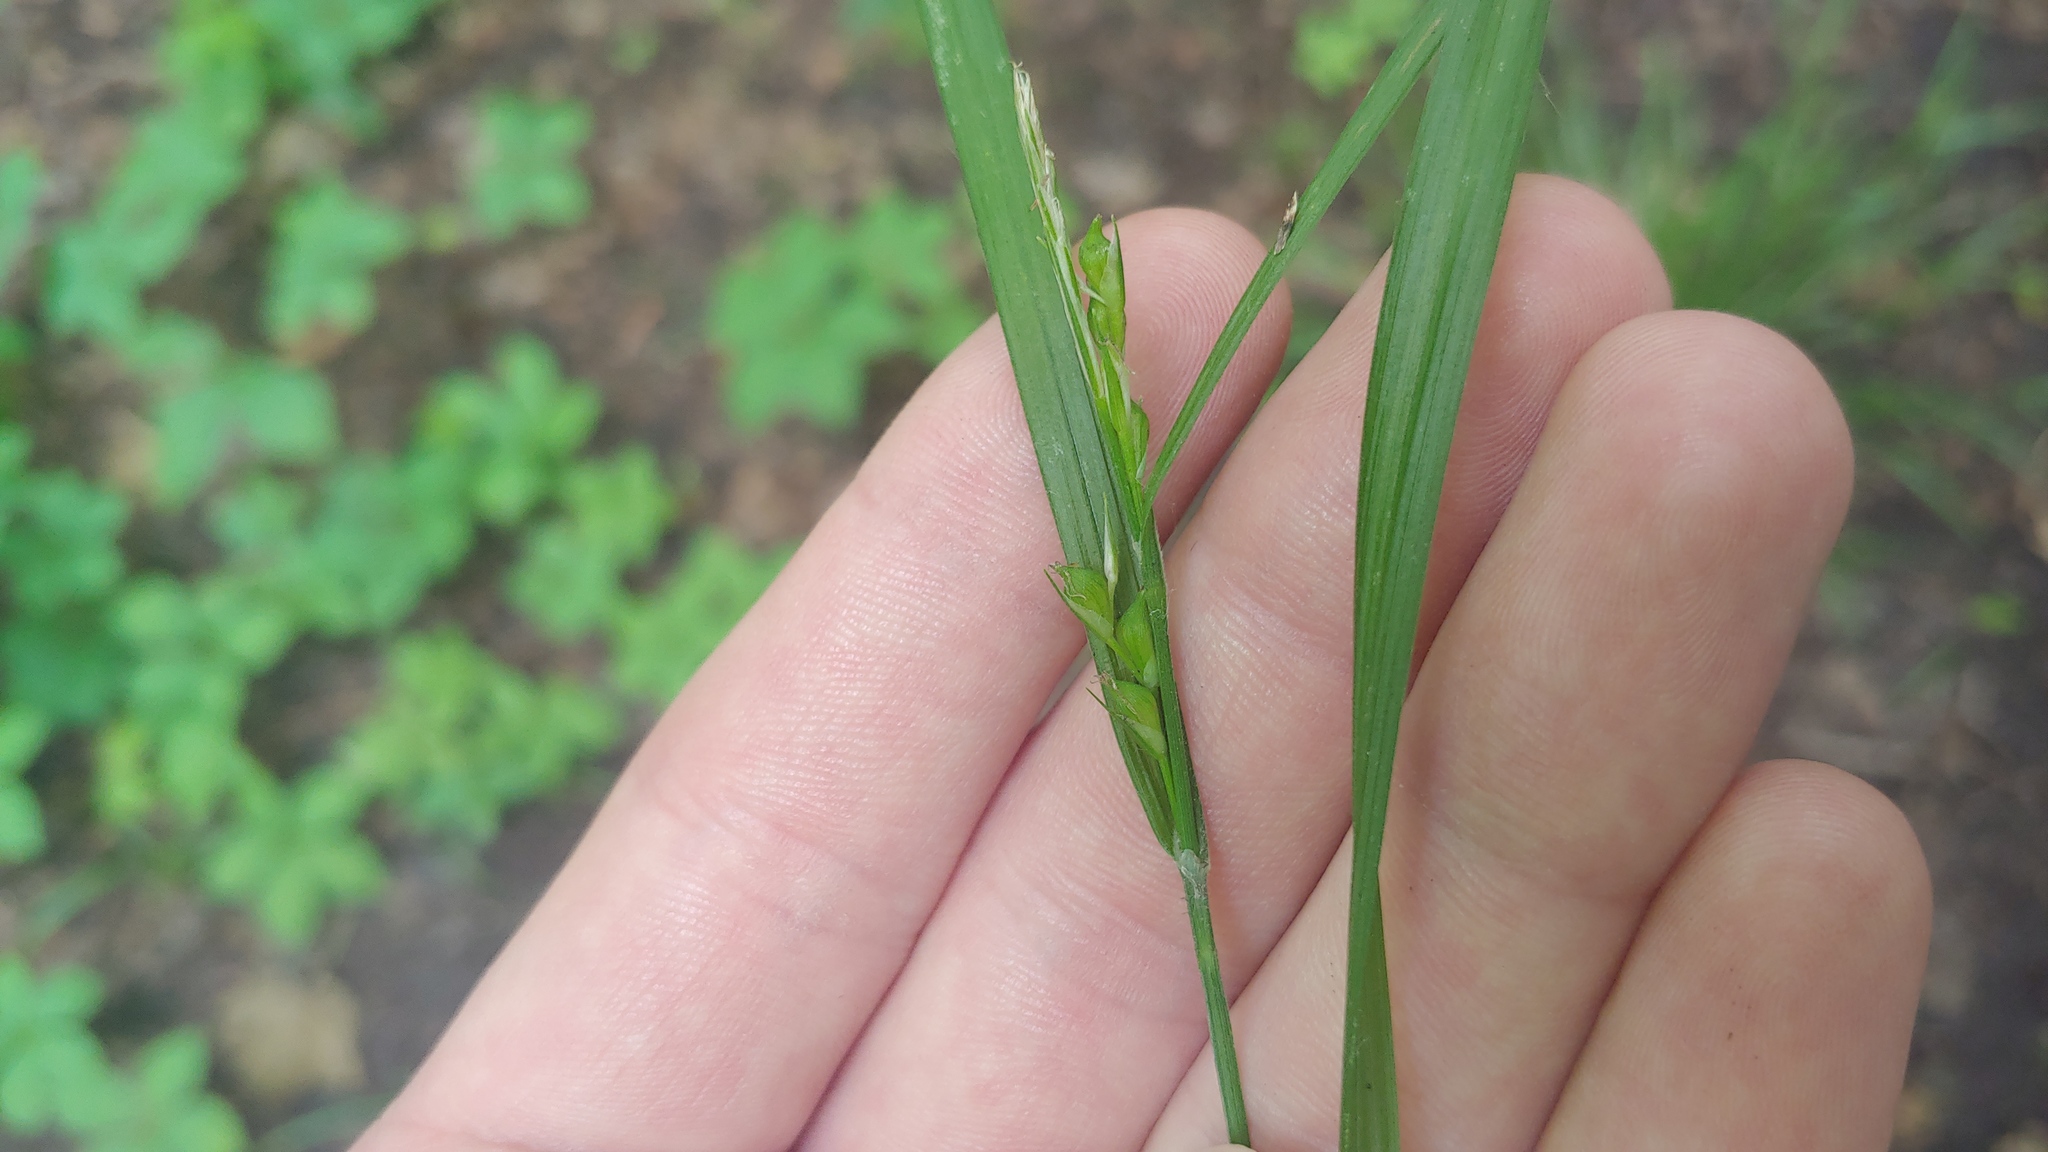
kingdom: Plantae
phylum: Tracheophyta
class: Liliopsida
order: Poales
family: Cyperaceae
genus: Carex
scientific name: Carex hitchcockiana
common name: Hairy grey sedge
